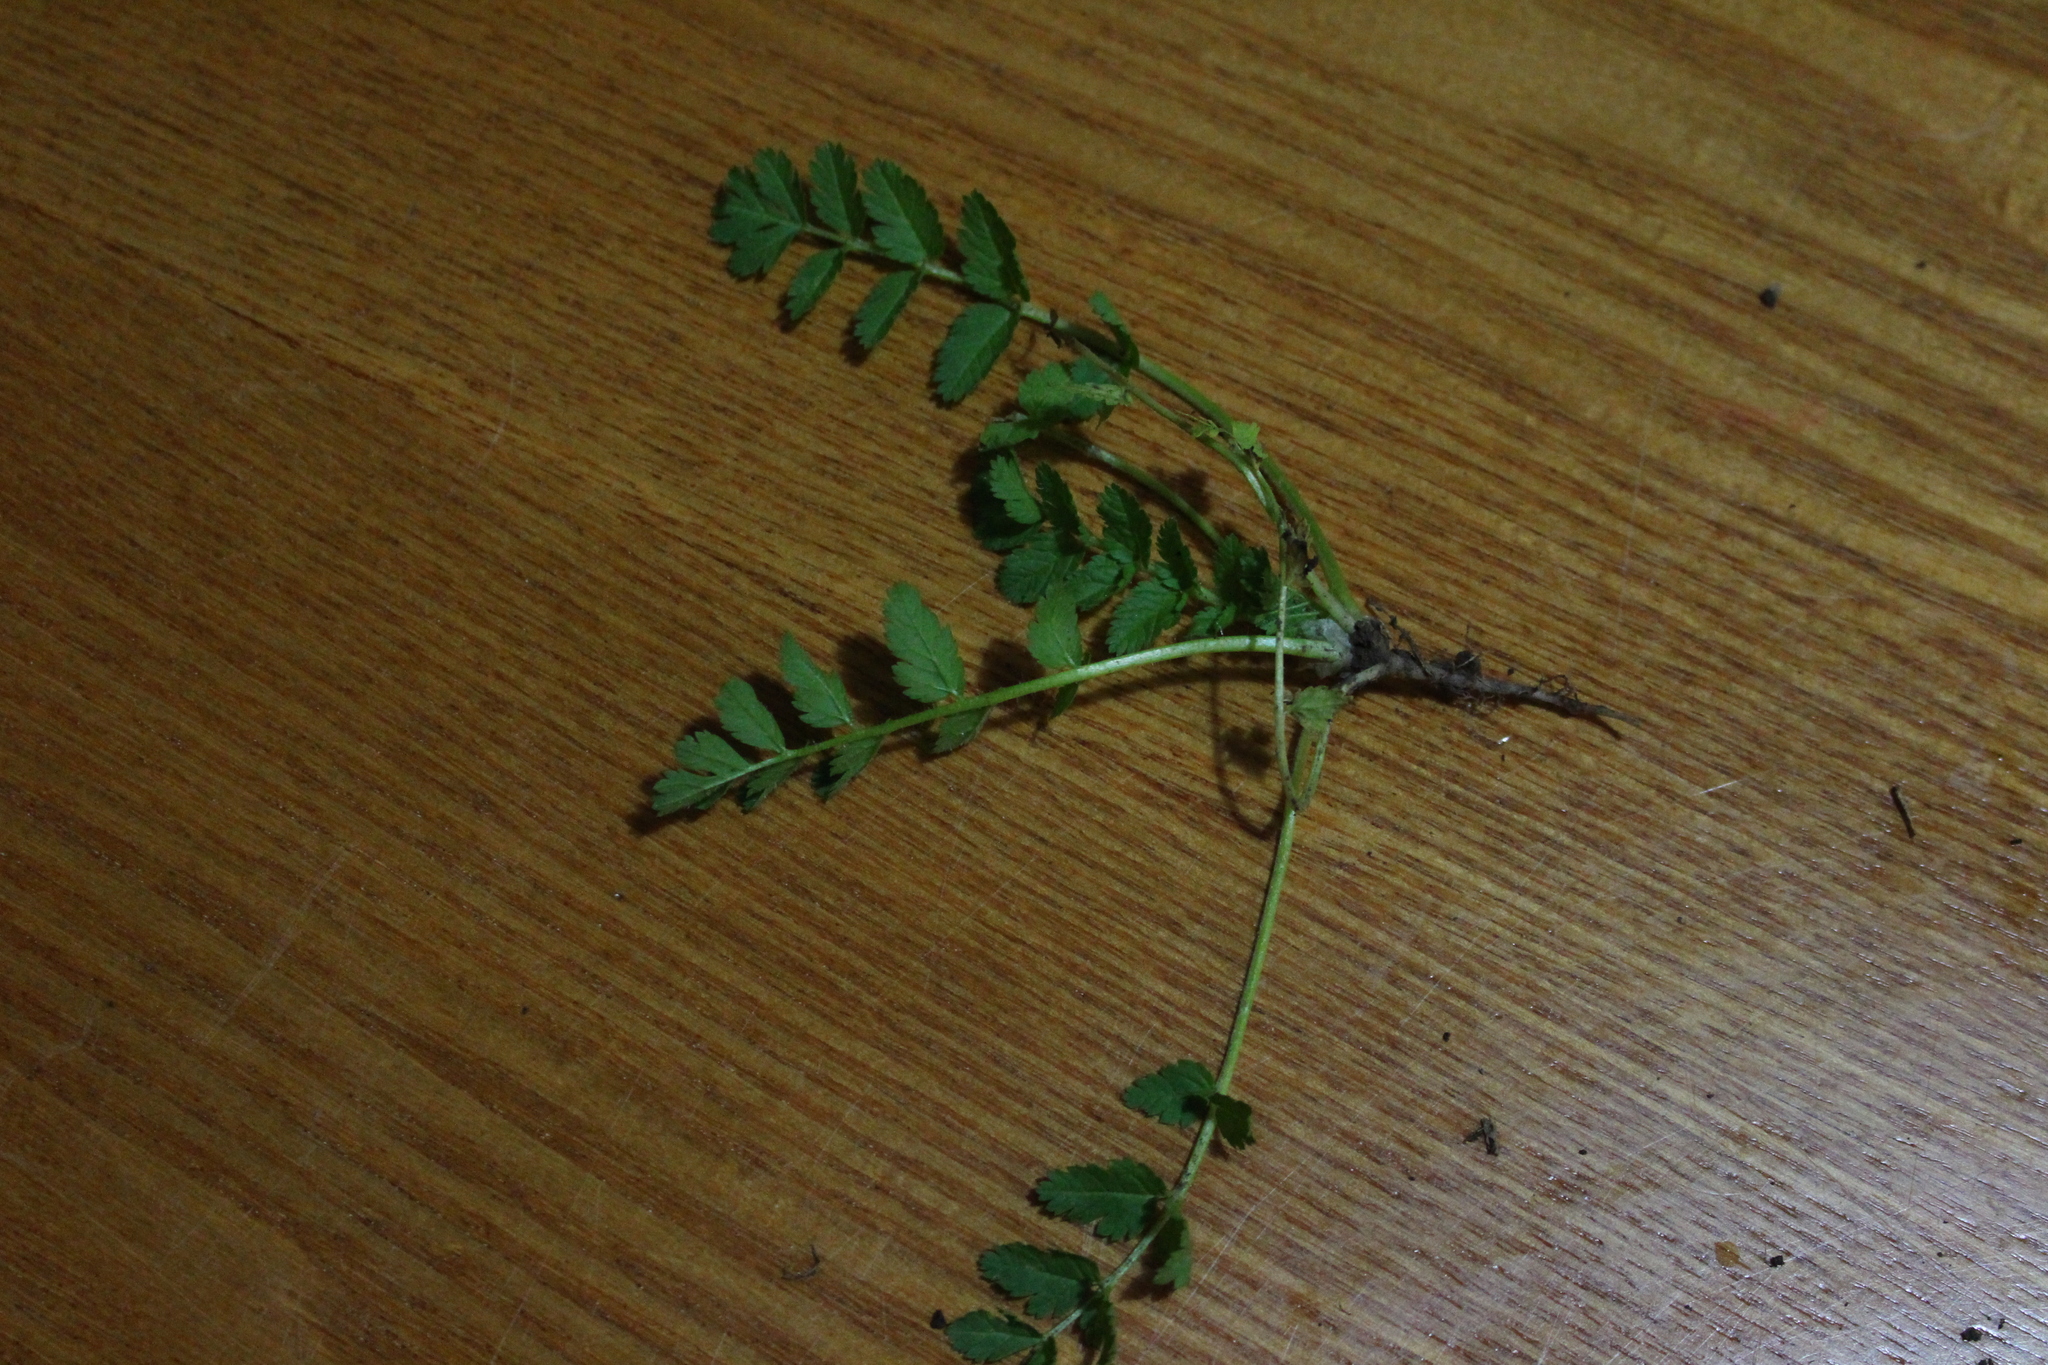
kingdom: Plantae
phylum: Tracheophyta
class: Magnoliopsida
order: Geraniales
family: Geraniaceae
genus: Erodium
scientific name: Erodium moschatum
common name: Musk stork's-bill
